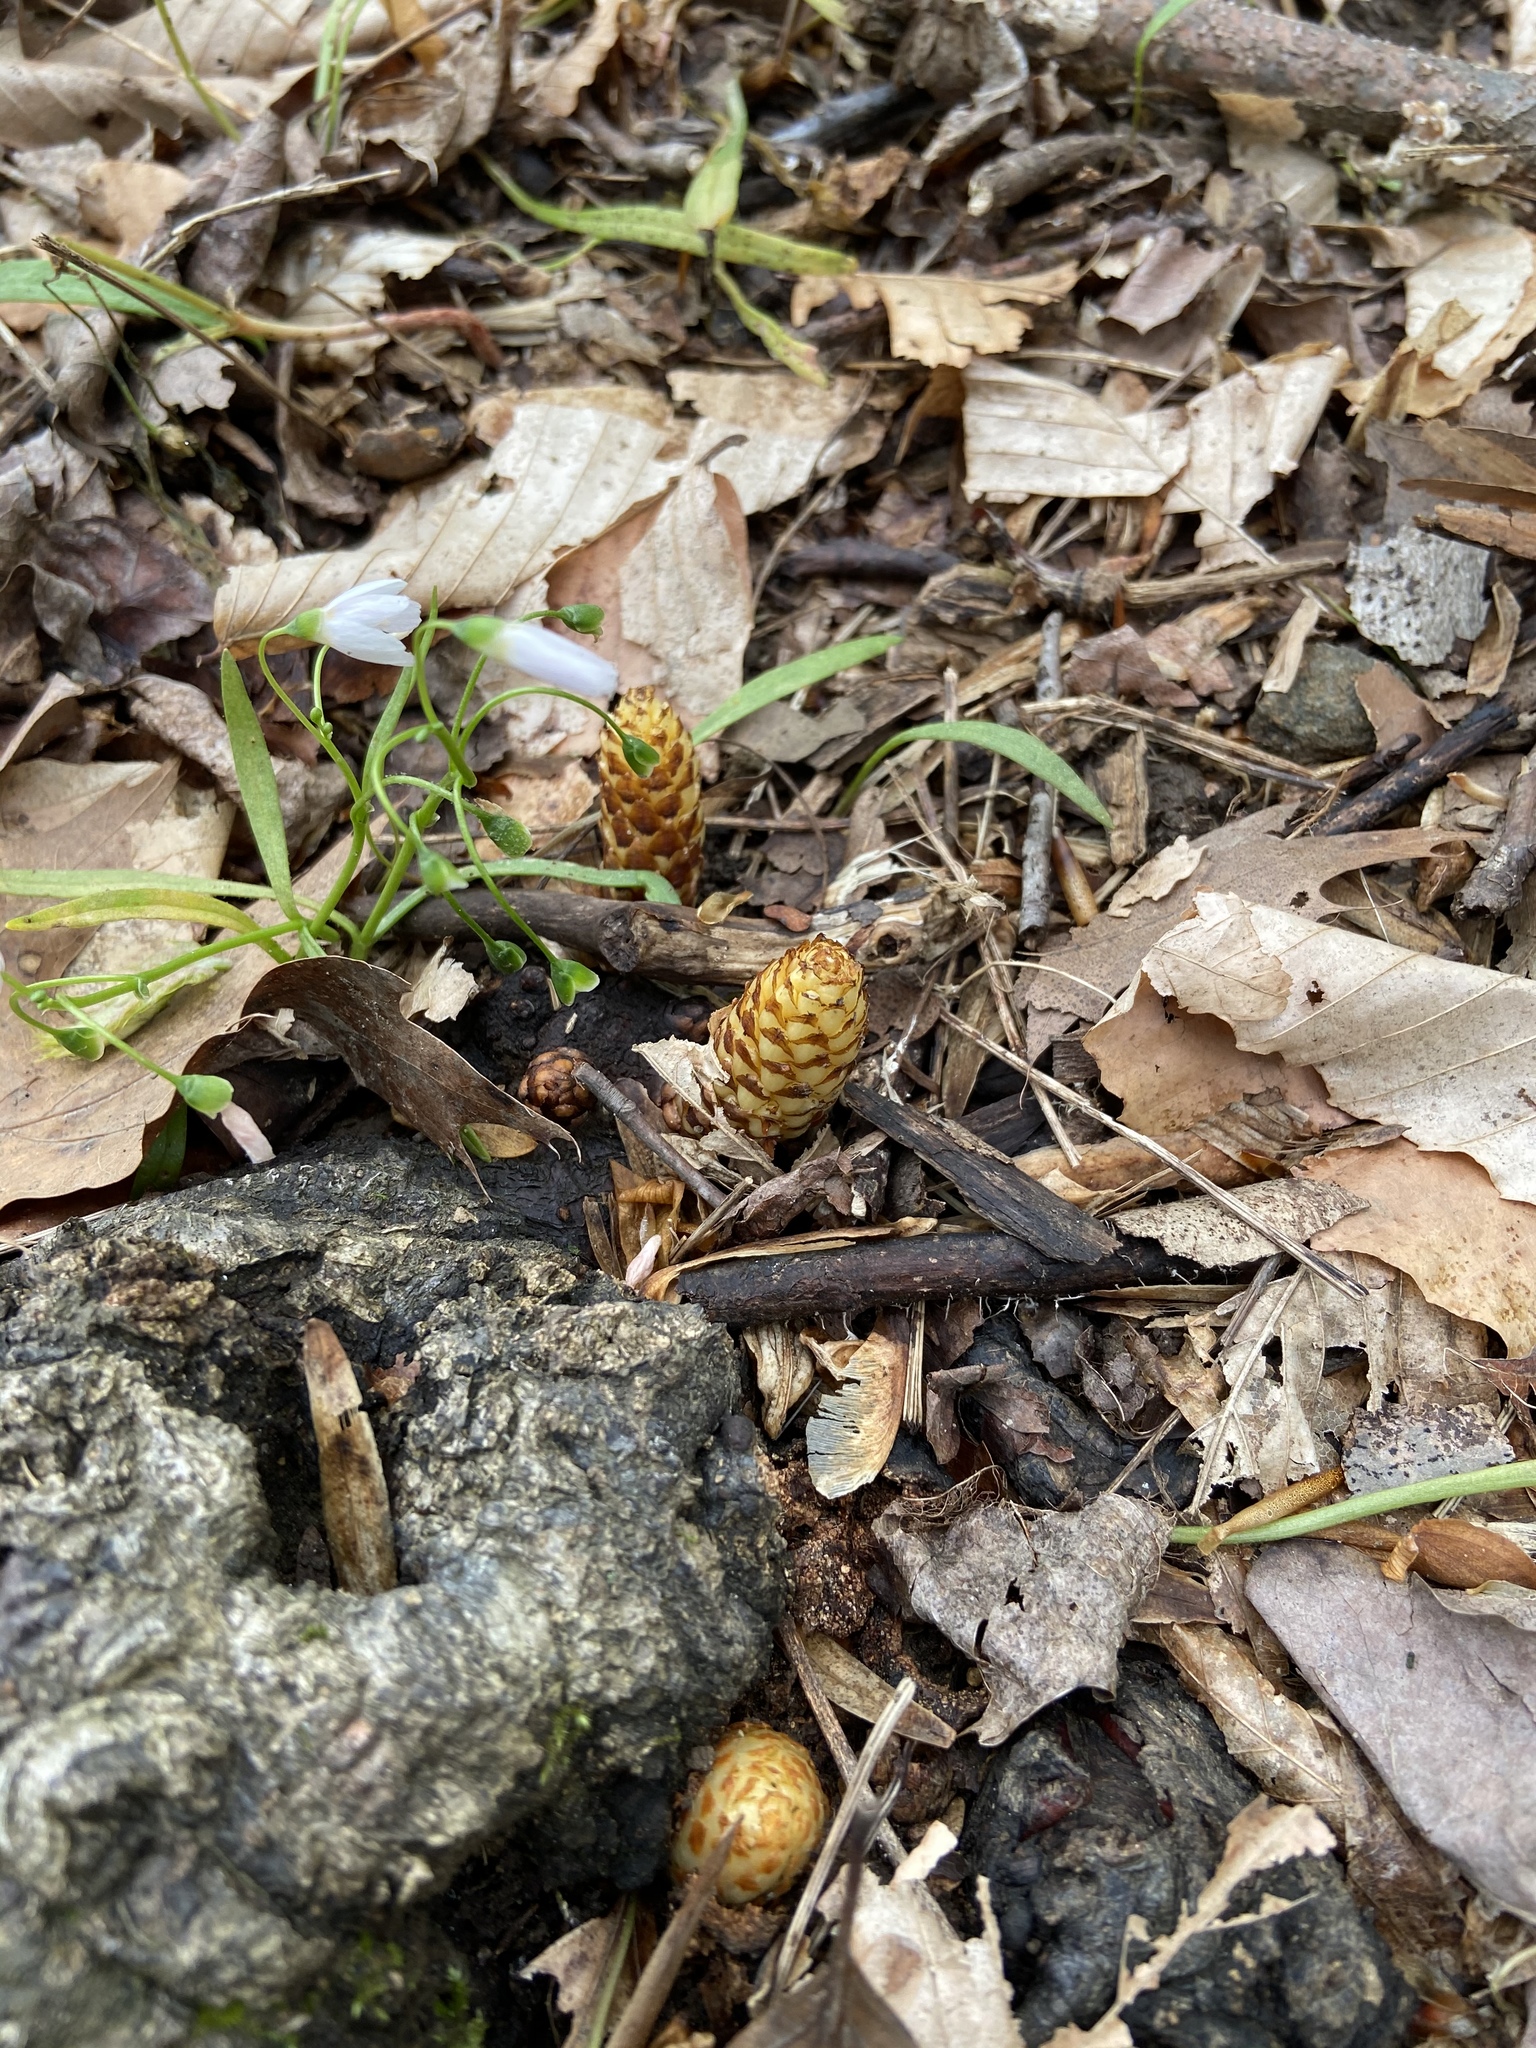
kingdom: Plantae
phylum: Tracheophyta
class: Magnoliopsida
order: Lamiales
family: Orobanchaceae
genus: Conopholis
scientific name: Conopholis americana
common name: American cancer-root
